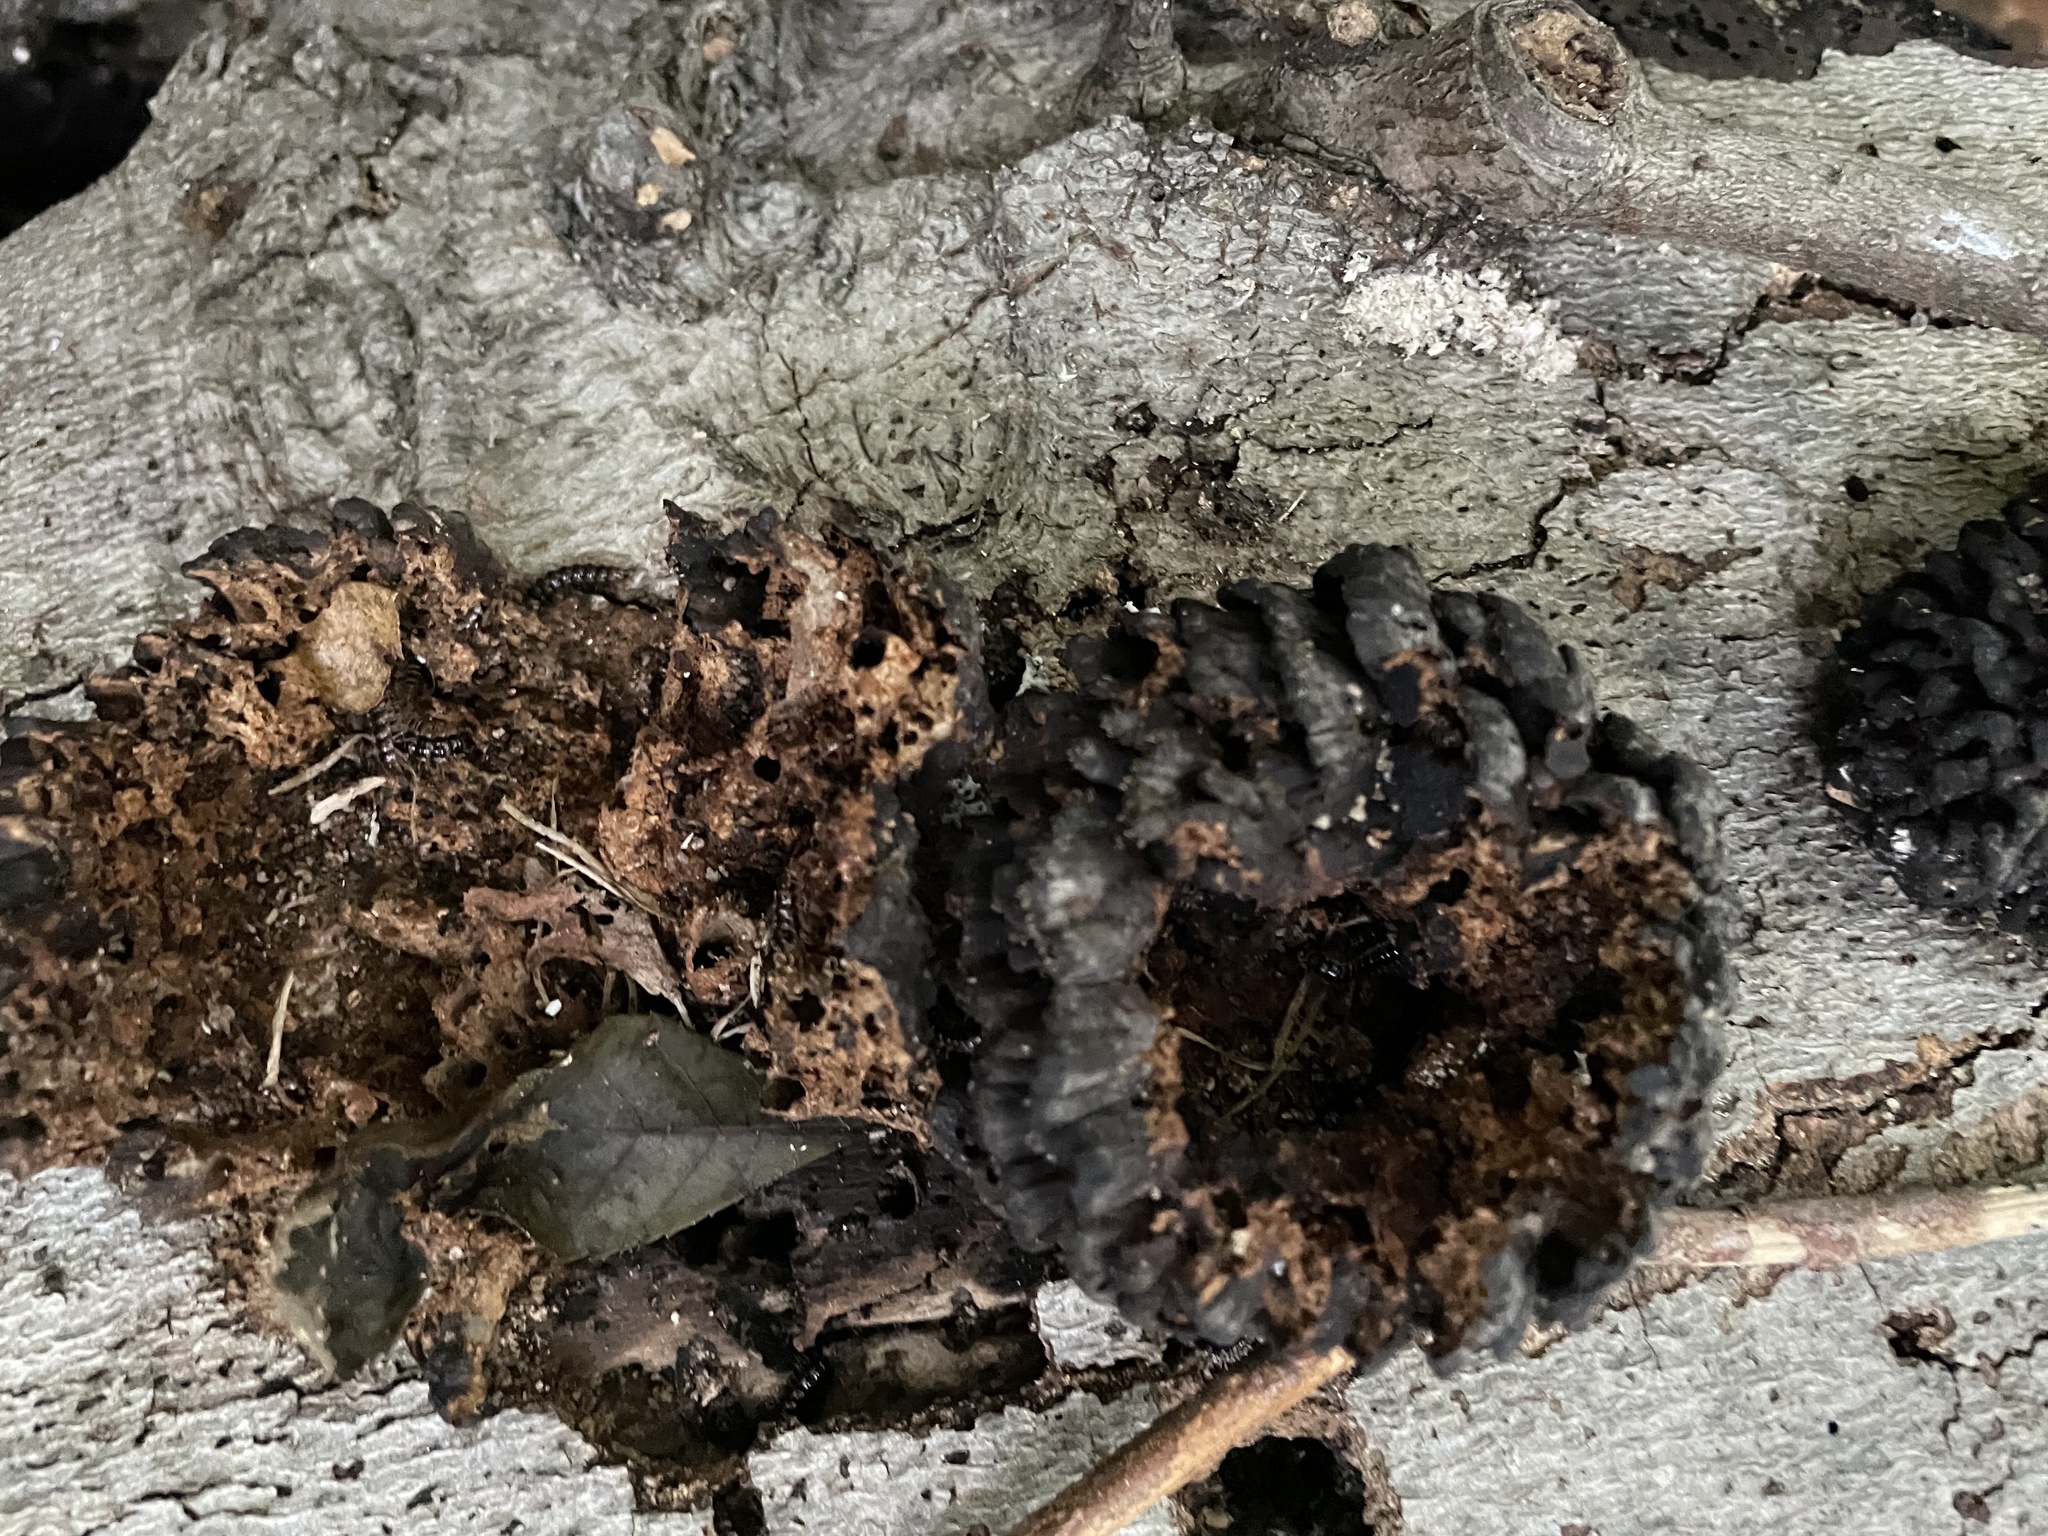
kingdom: Fungi
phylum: Basidiomycota
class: Agaricomycetes
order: Polyporales
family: Polyporaceae
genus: Globifomes
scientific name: Globifomes graveolens
